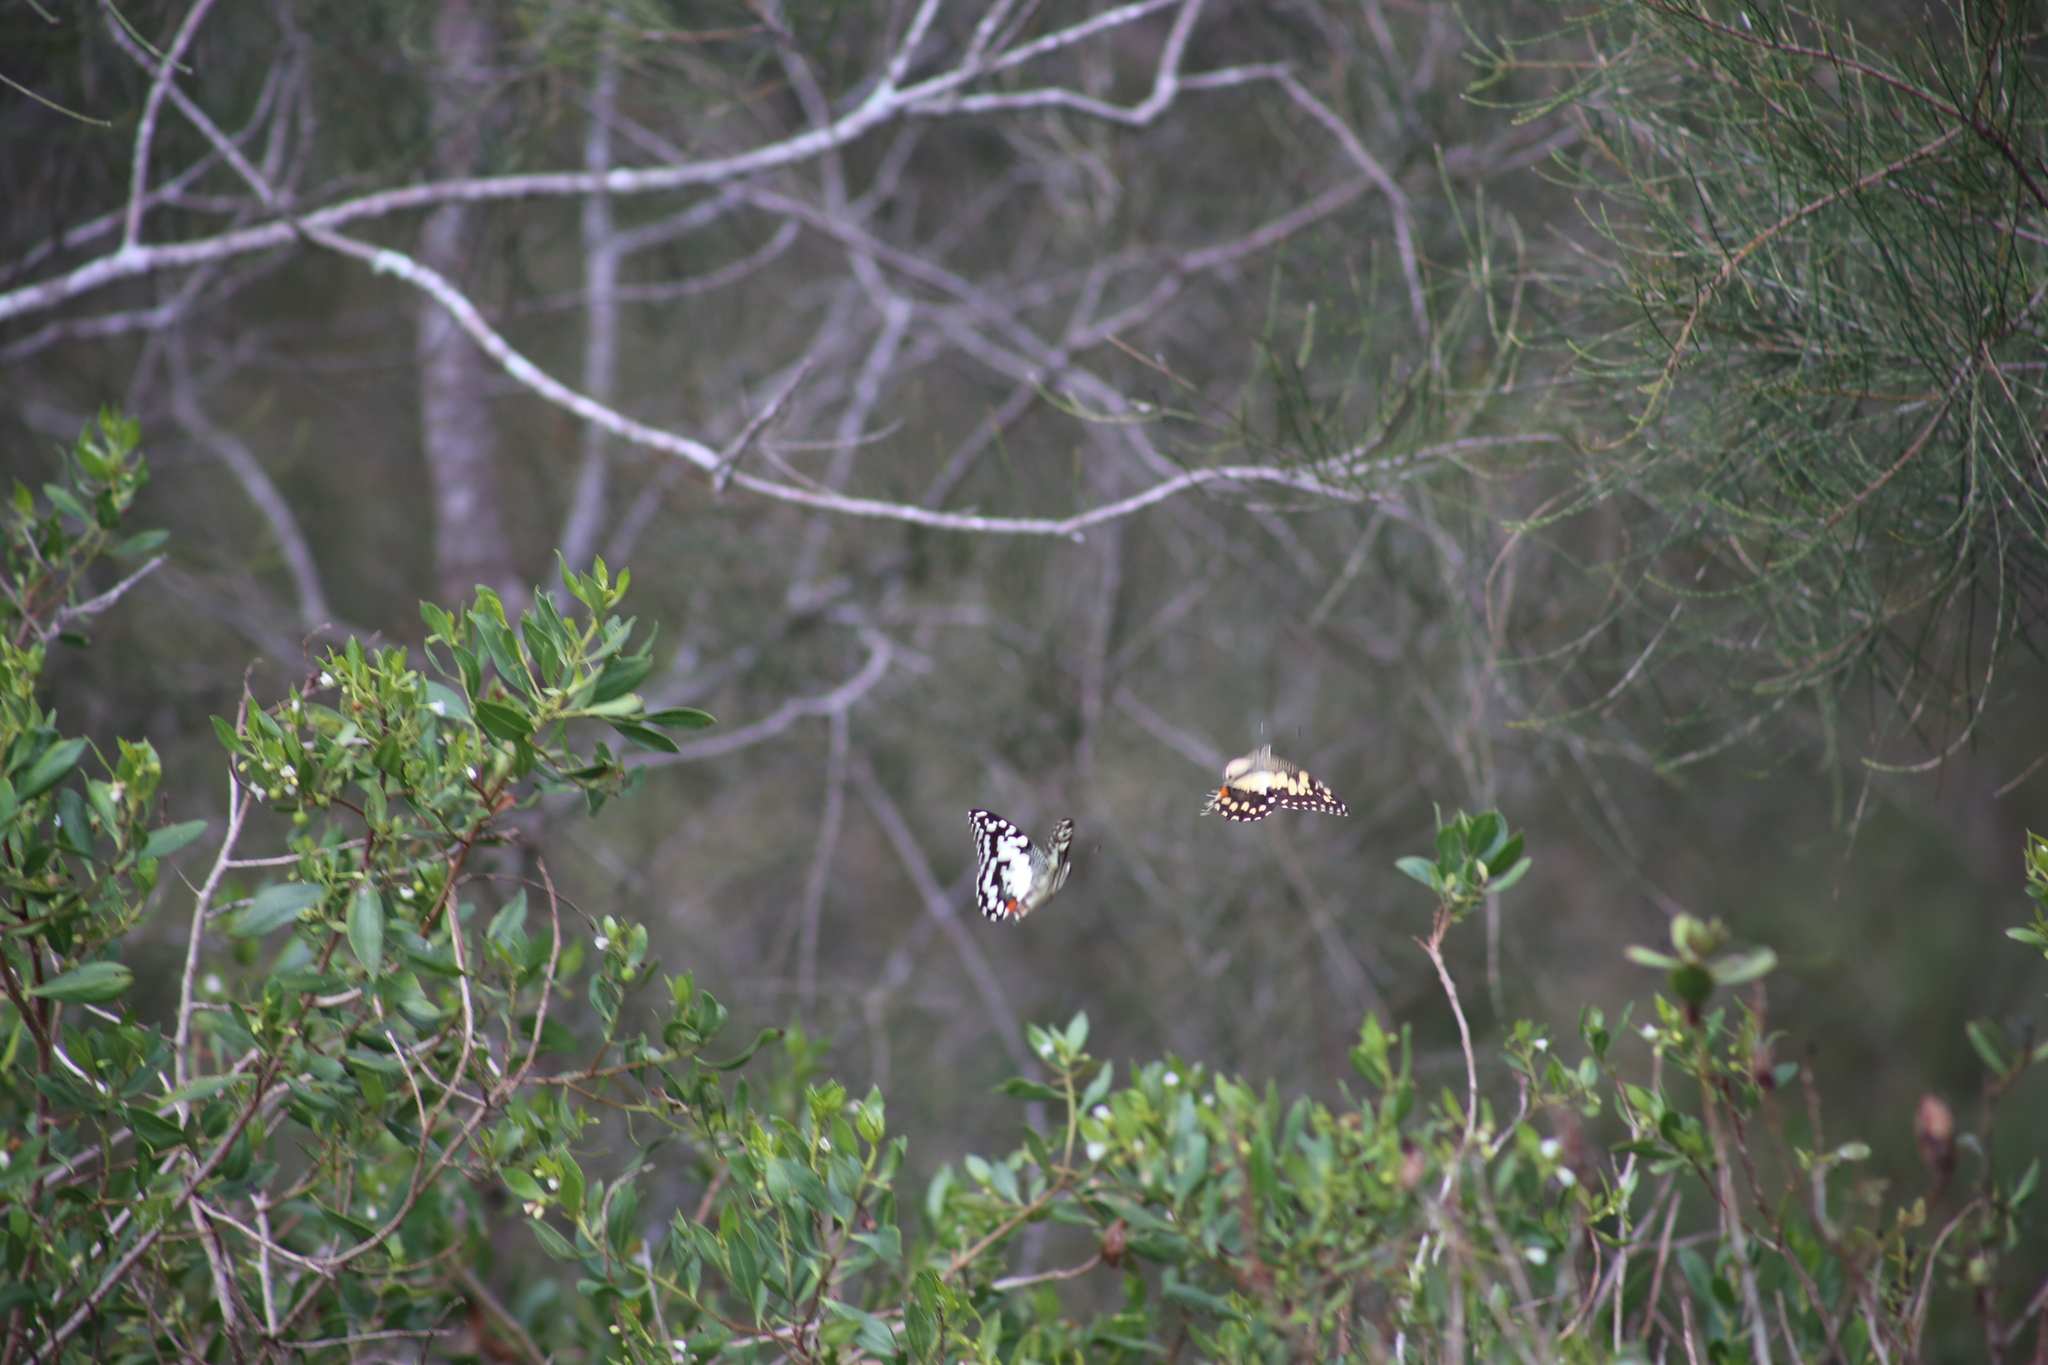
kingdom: Animalia
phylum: Arthropoda
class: Insecta
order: Lepidoptera
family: Papilionidae
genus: Papilio
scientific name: Papilio demoleus
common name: Lime butterfly
